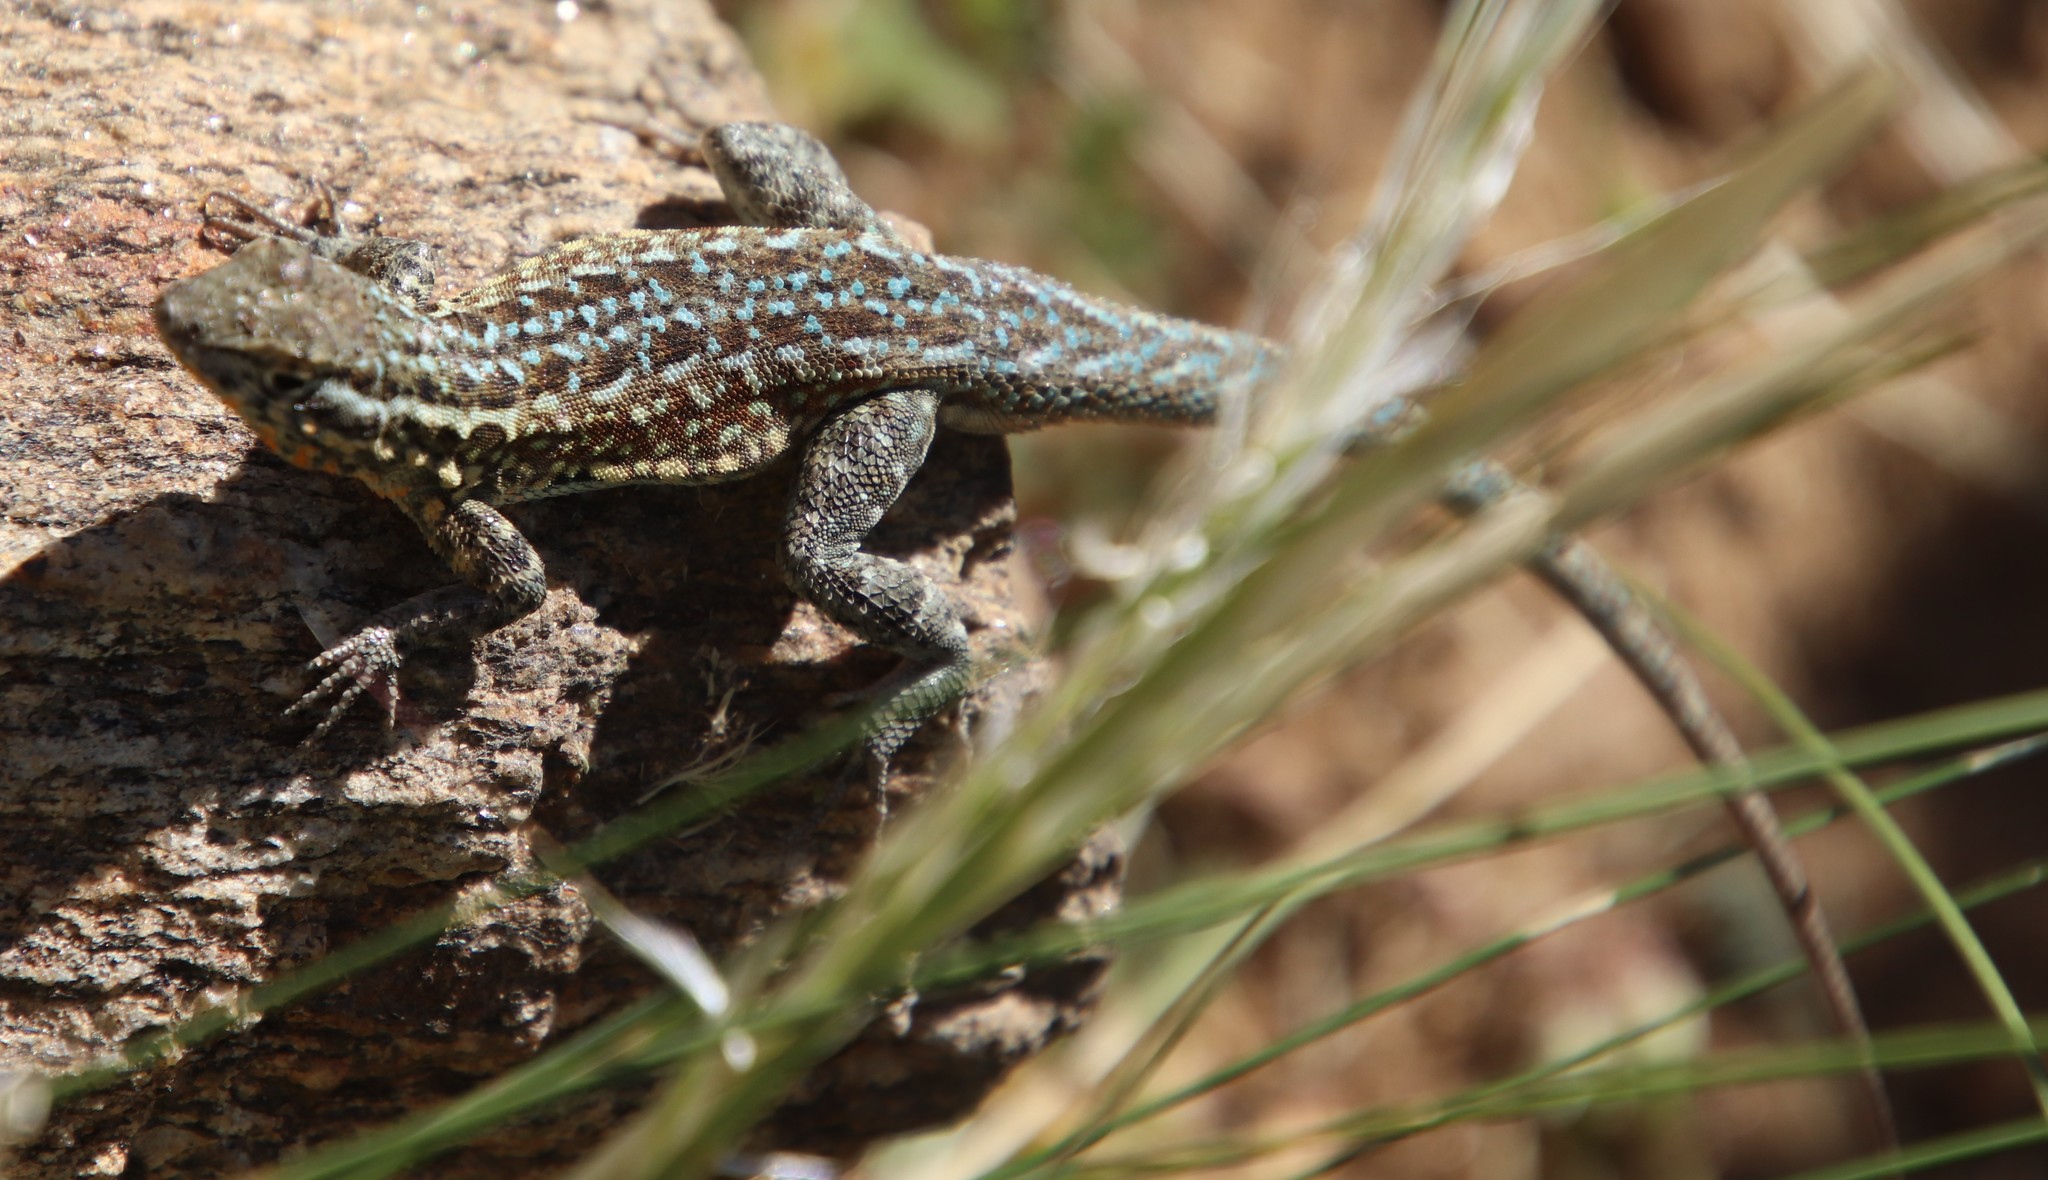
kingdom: Animalia
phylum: Chordata
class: Squamata
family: Phrynosomatidae
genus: Uta
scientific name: Uta stansburiana
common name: Side-blotched lizard
